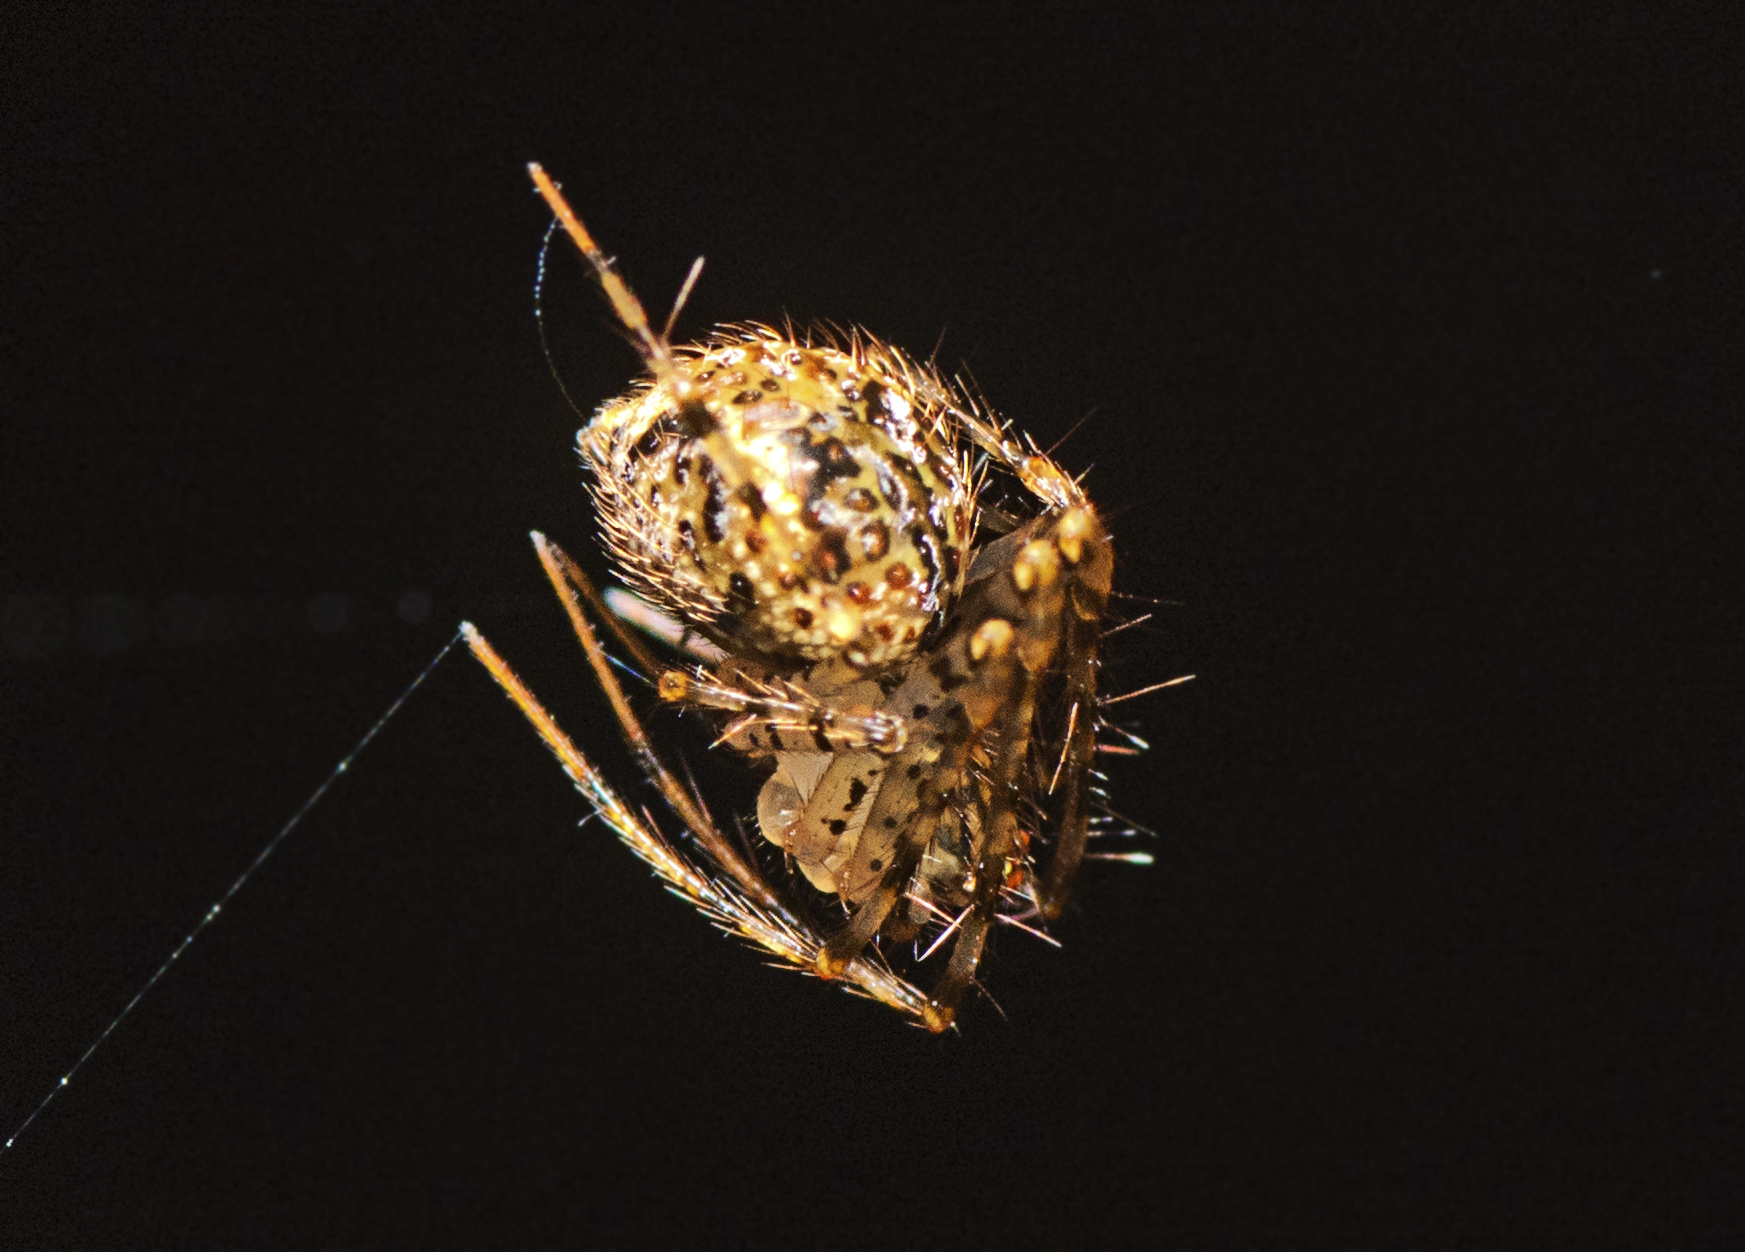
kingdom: Animalia
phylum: Arthropoda
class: Arachnida
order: Araneae
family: Mimetidae
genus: Australomimetus
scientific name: Australomimetus maculosus
